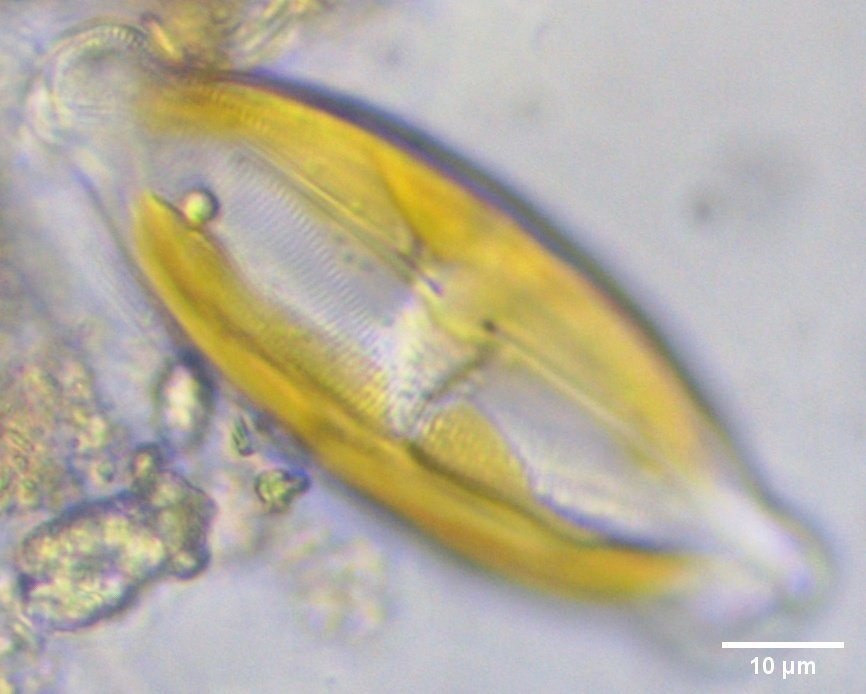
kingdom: Chromista
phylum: Ochrophyta
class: Bacillariophyceae
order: Naviculales
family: Naviculaceae
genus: Caloneis
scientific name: Caloneis amphisbaena
